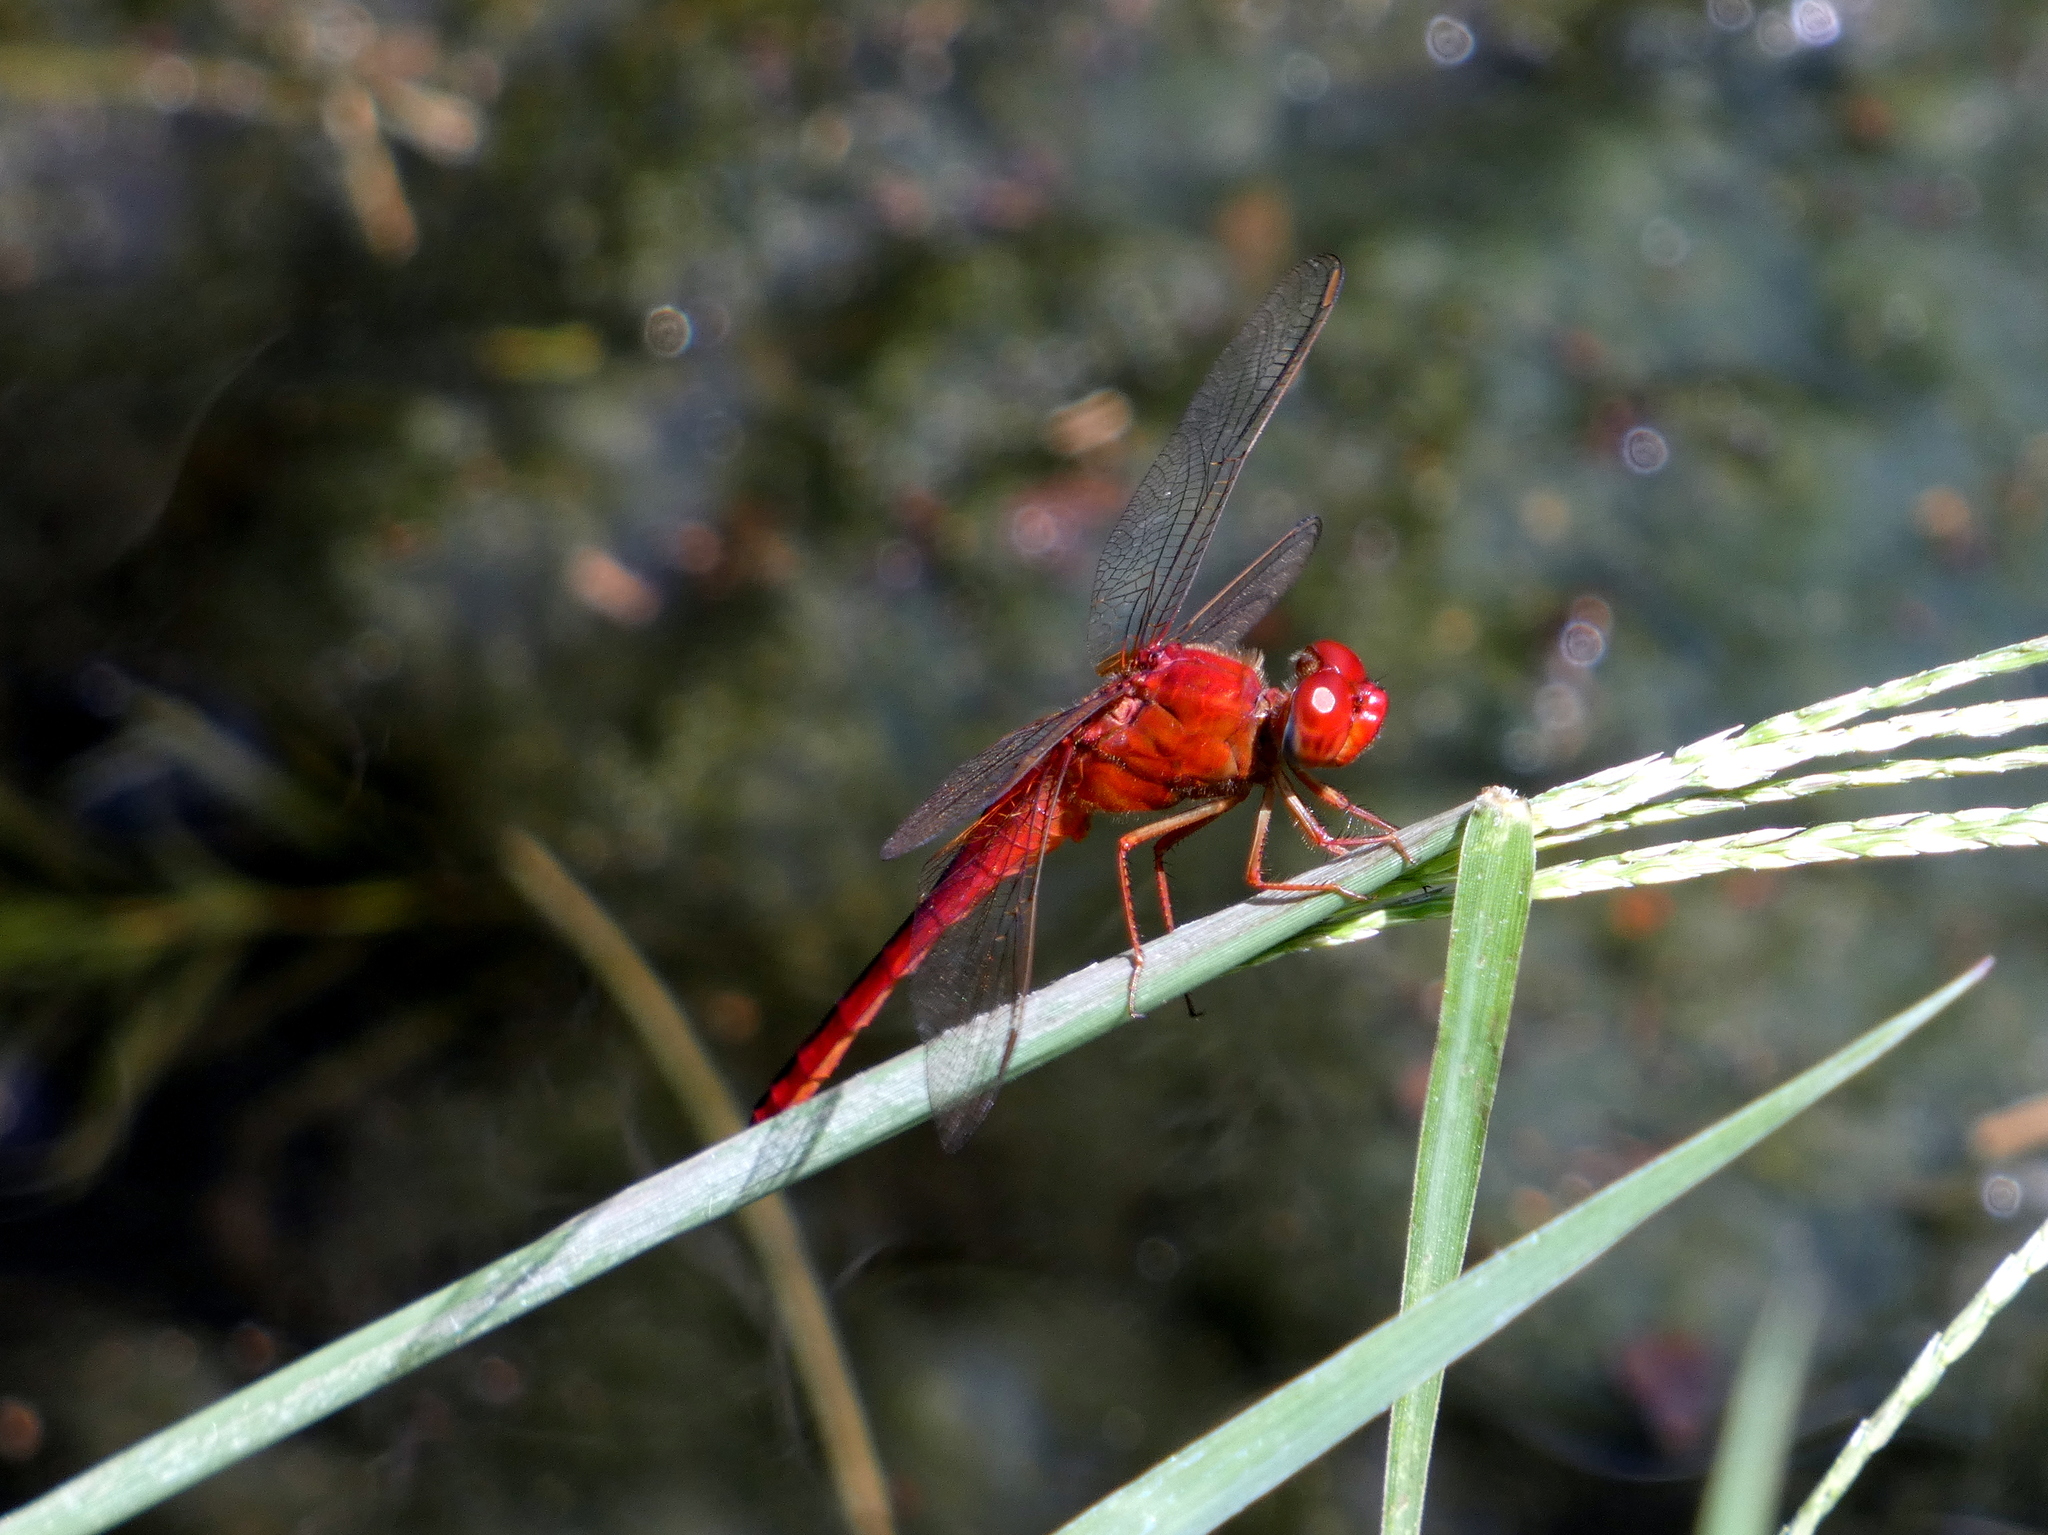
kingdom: Animalia
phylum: Arthropoda
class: Insecta
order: Odonata
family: Libellulidae
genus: Crocothemis
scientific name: Crocothemis servilia
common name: Scarlet skimmer
